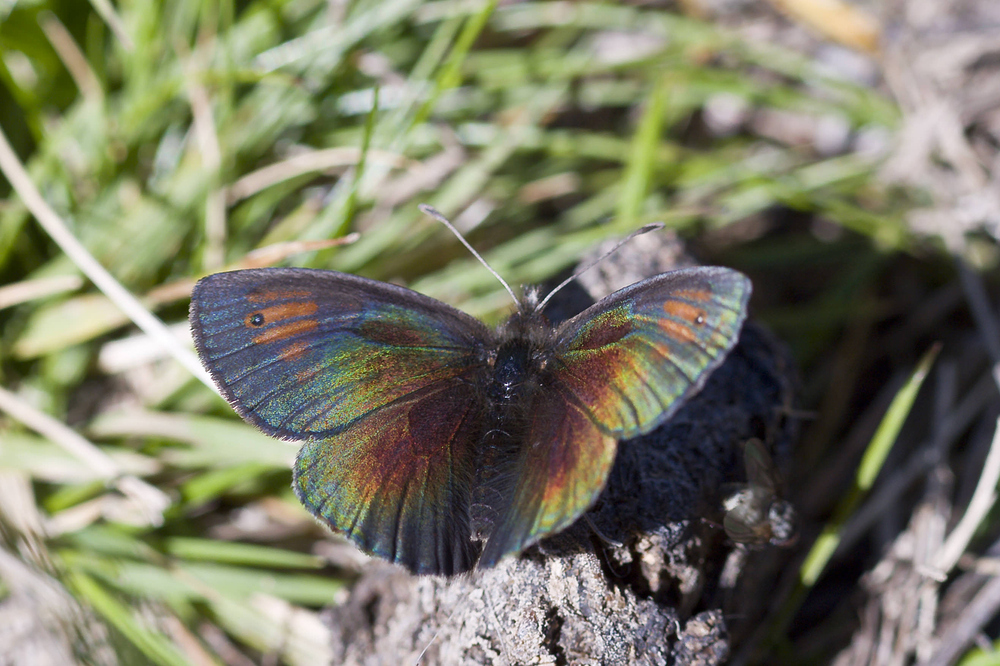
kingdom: Animalia
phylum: Arthropoda
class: Insecta
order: Lepidoptera
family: Nymphalidae
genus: Erebia
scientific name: Erebia tyndarus
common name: Swiss brassy ringlet
